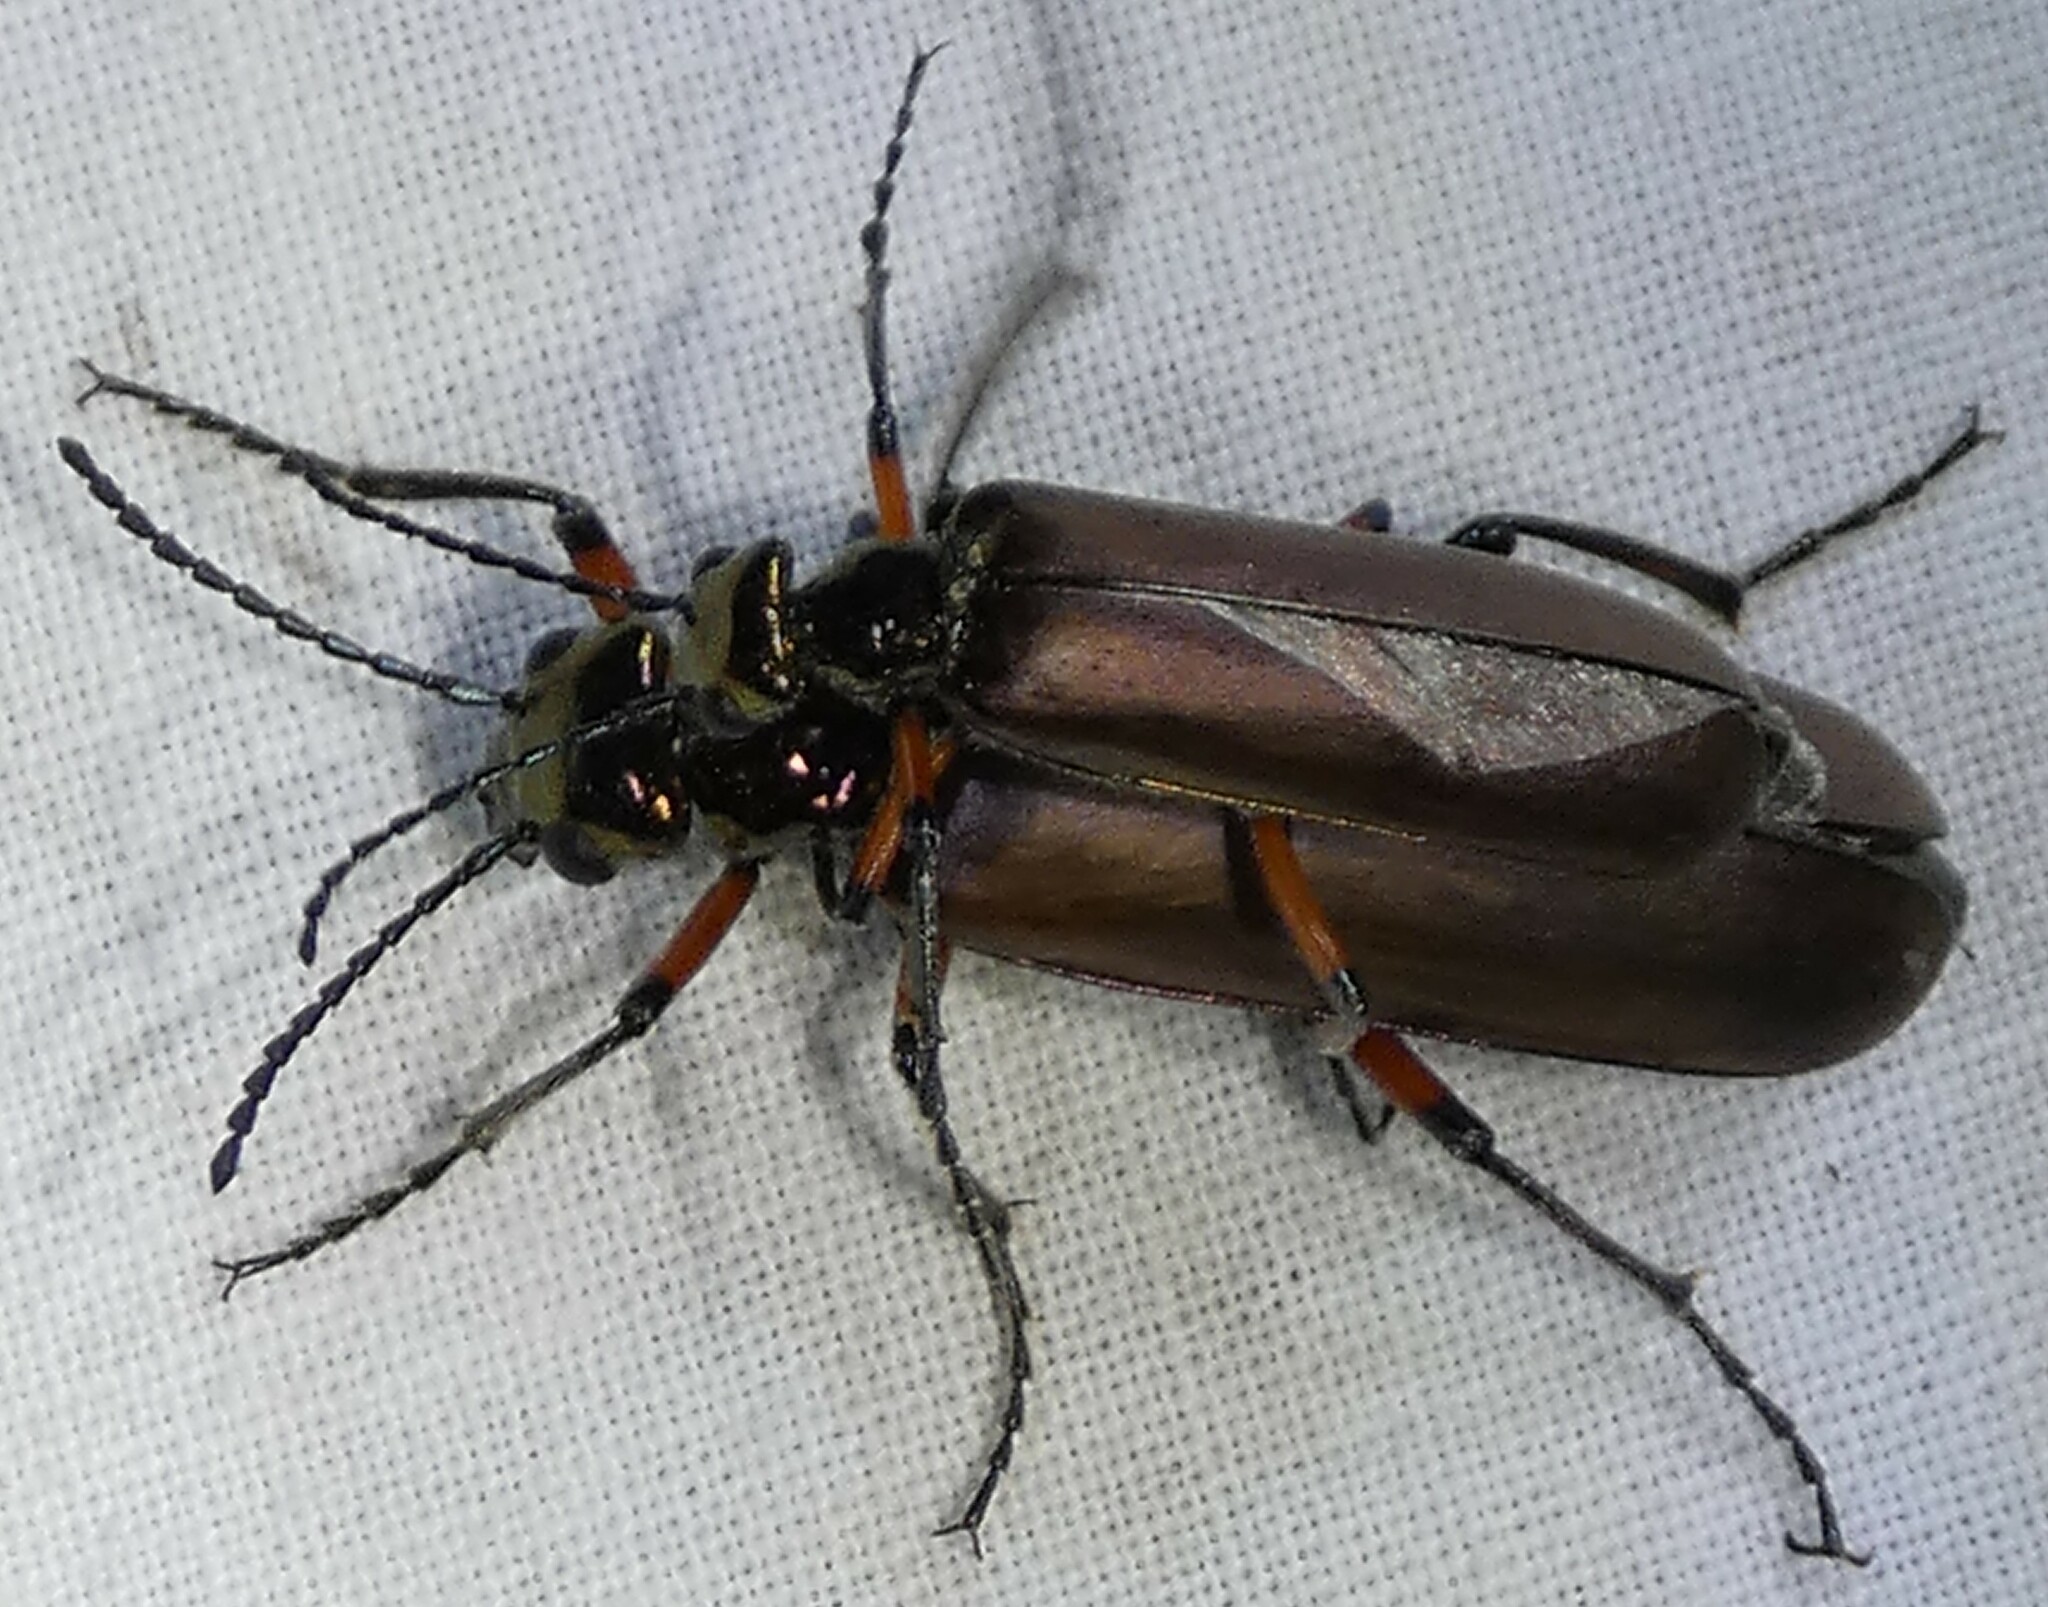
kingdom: Animalia
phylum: Arthropoda
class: Insecta
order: Coleoptera
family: Meloidae
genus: Lytta
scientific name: Lytta polita
